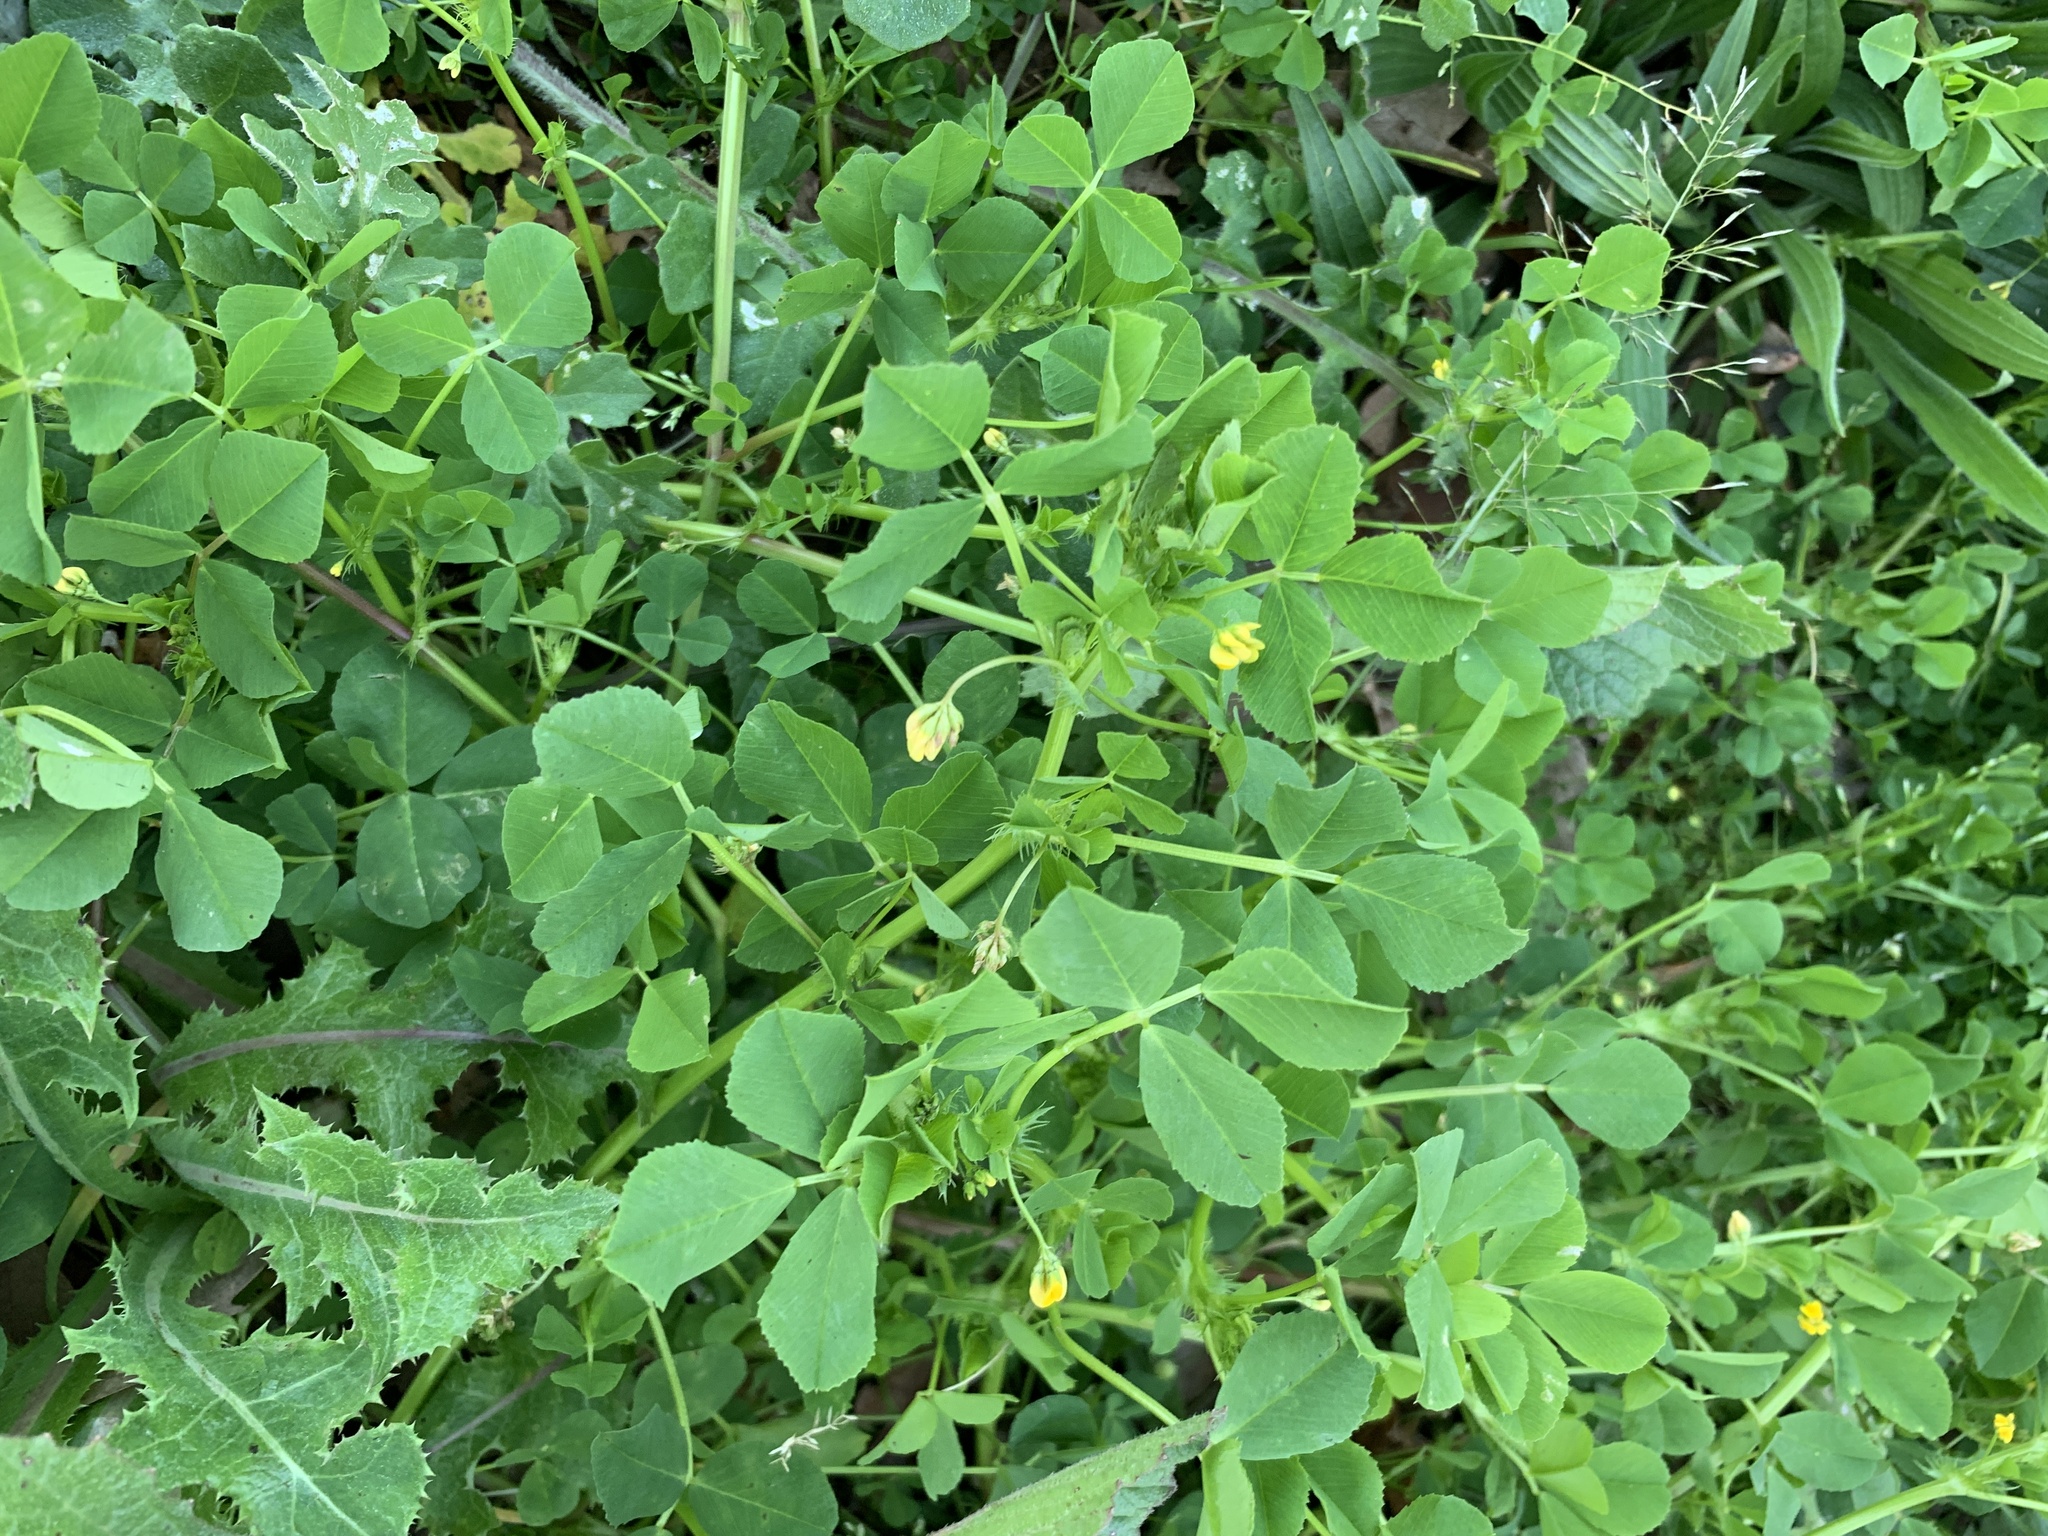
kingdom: Plantae
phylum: Tracheophyta
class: Magnoliopsida
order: Fabales
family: Fabaceae
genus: Medicago
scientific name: Medicago polymorpha
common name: Burclover
